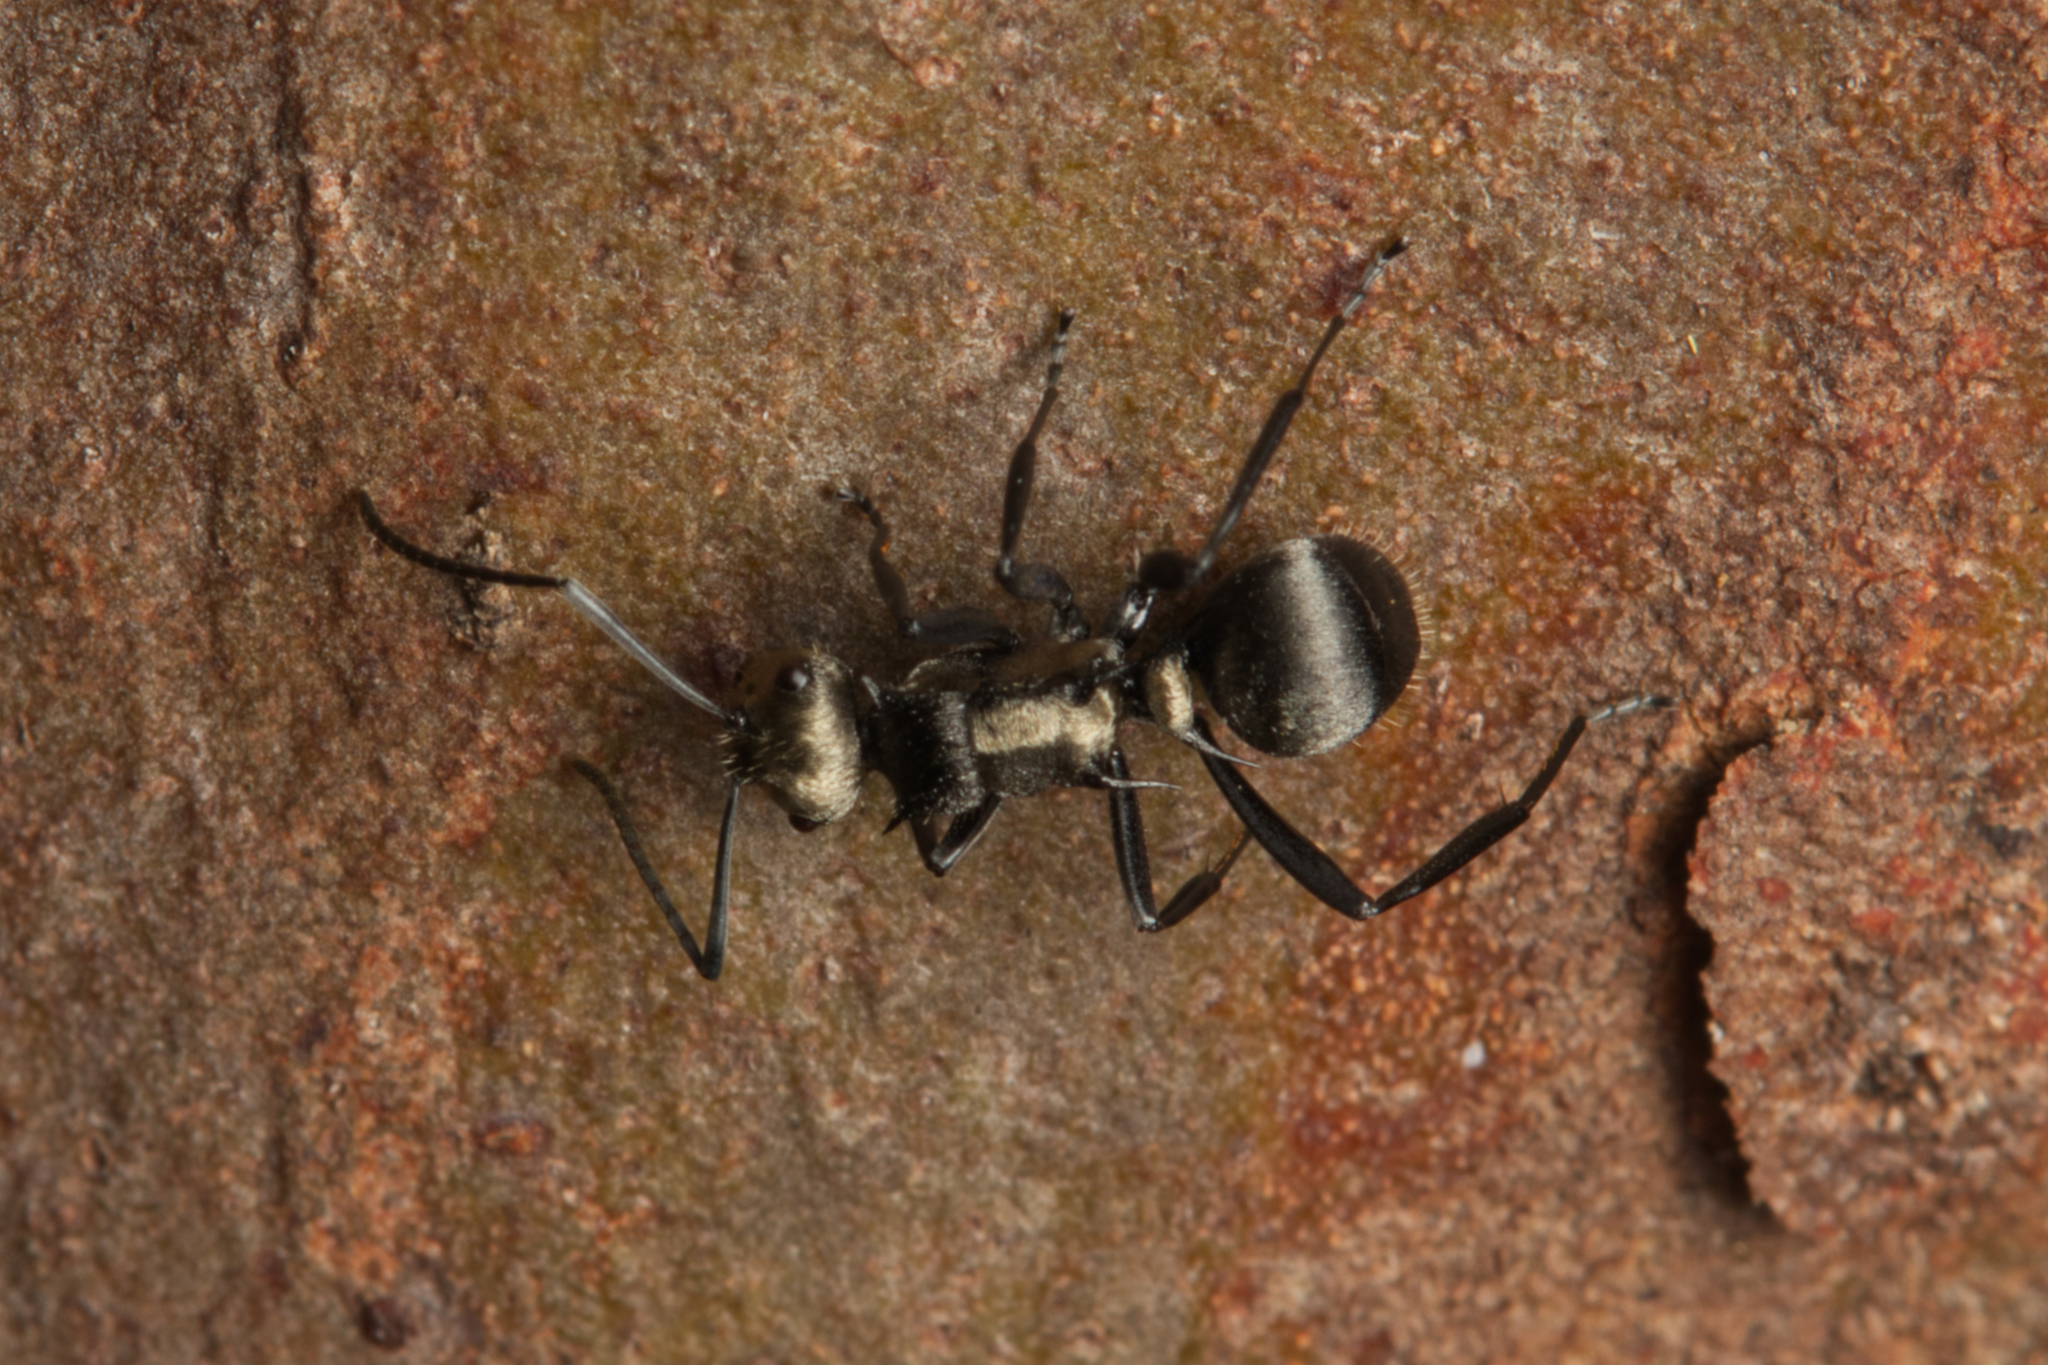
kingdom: Animalia
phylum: Arthropoda
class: Insecta
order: Hymenoptera
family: Formicidae
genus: Polyrhachis
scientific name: Polyrhachis daemeli
